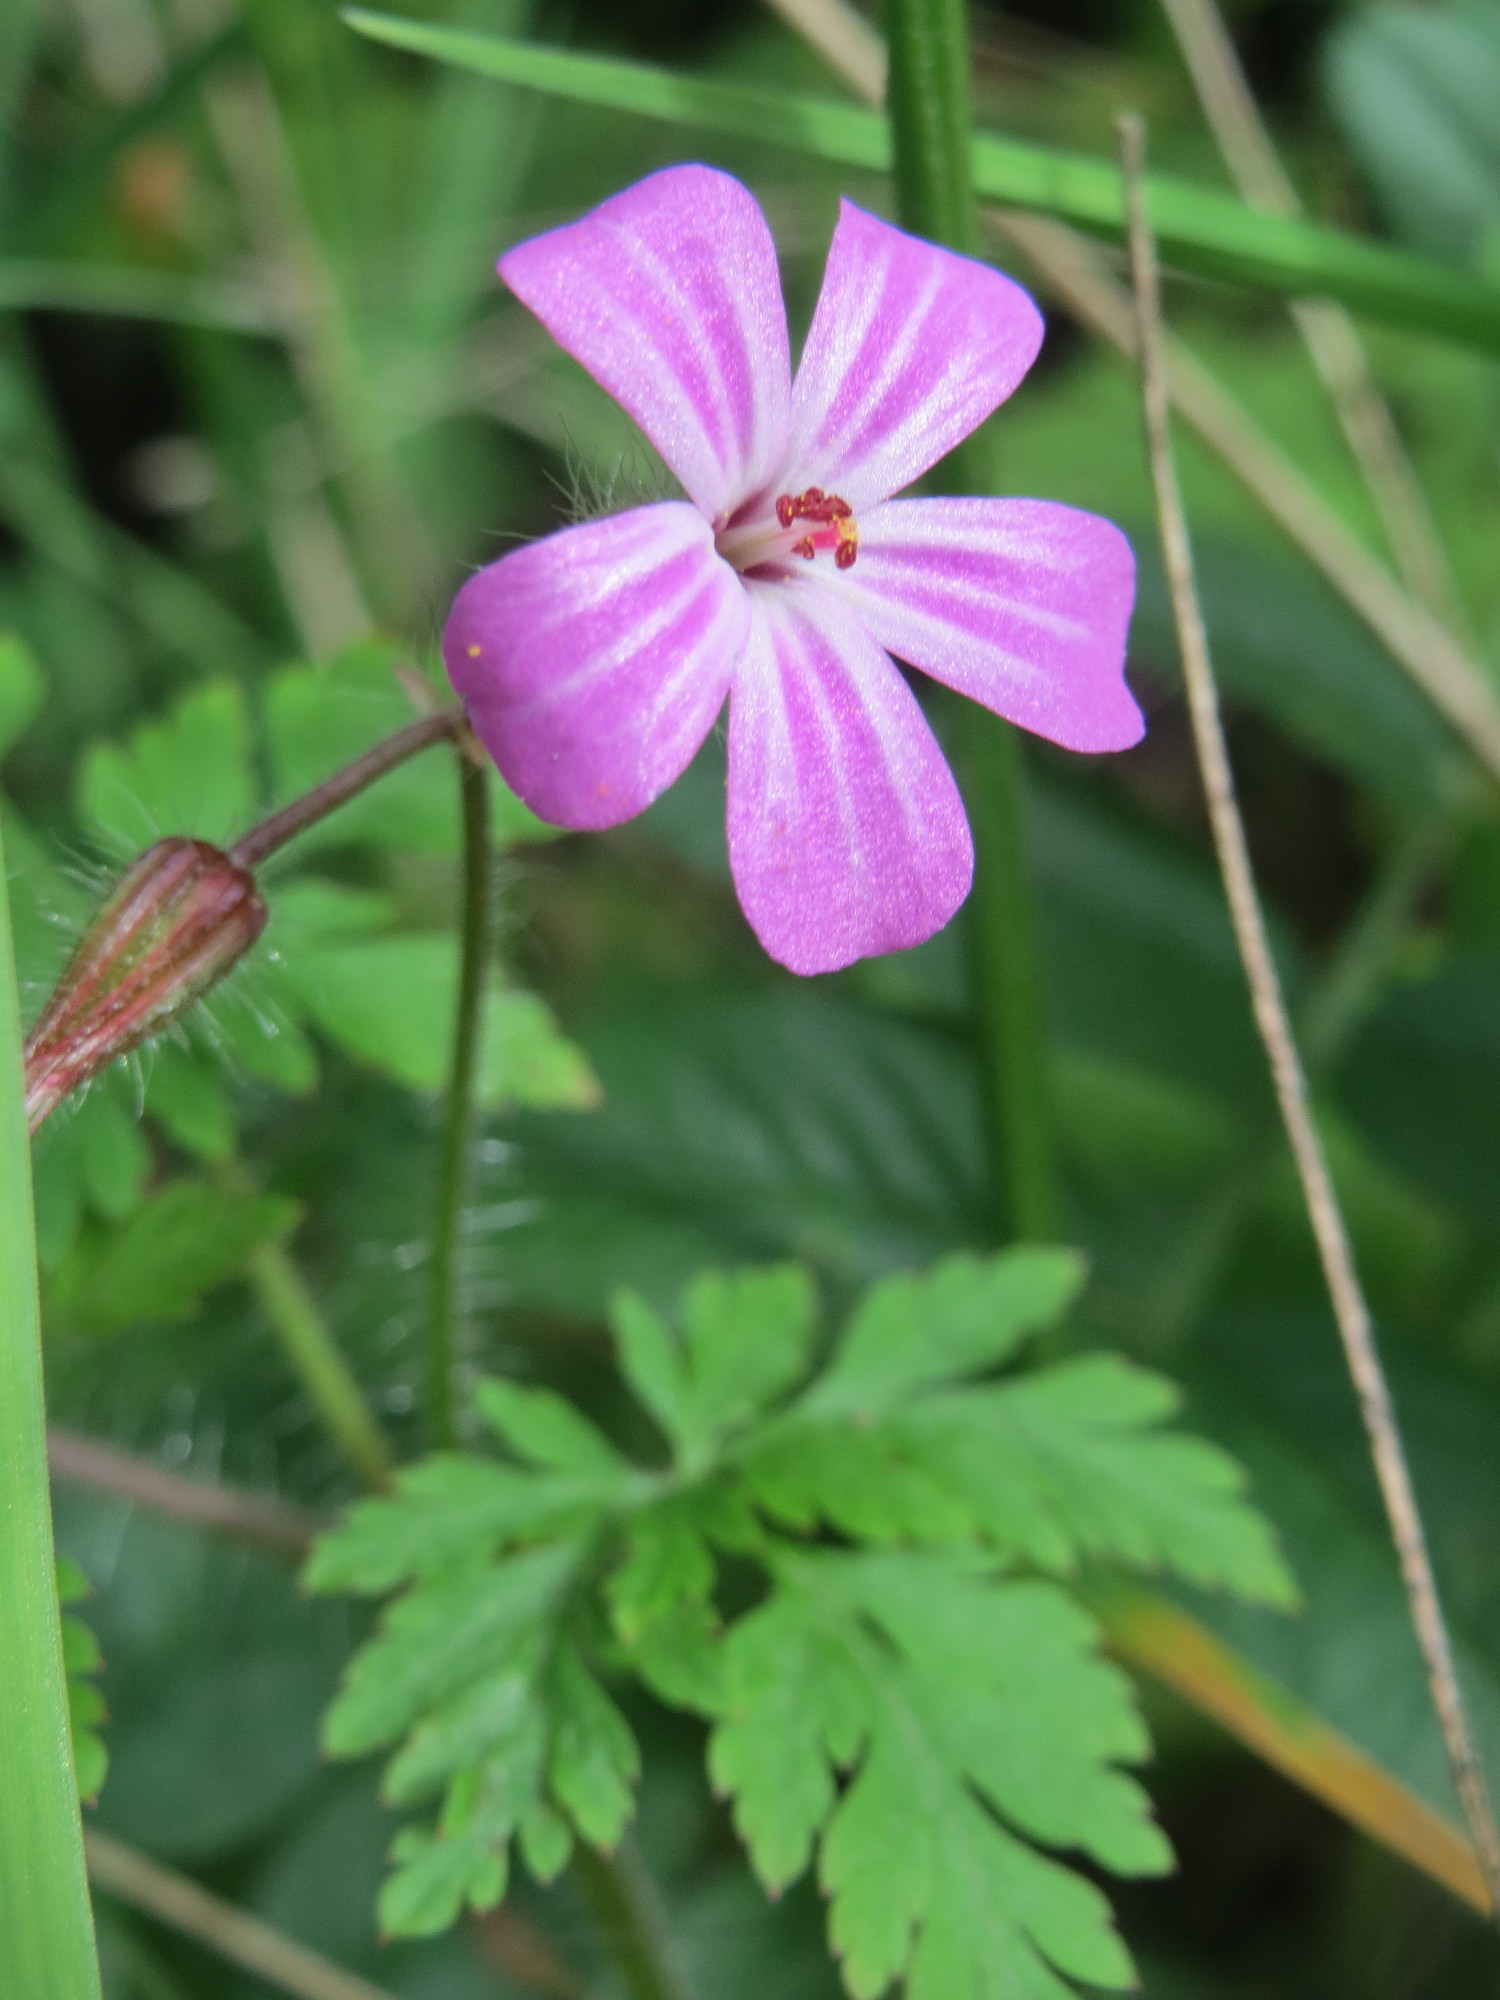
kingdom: Plantae
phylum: Tracheophyta
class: Magnoliopsida
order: Geraniales
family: Geraniaceae
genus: Geranium
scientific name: Geranium robertianum
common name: Herb-robert
